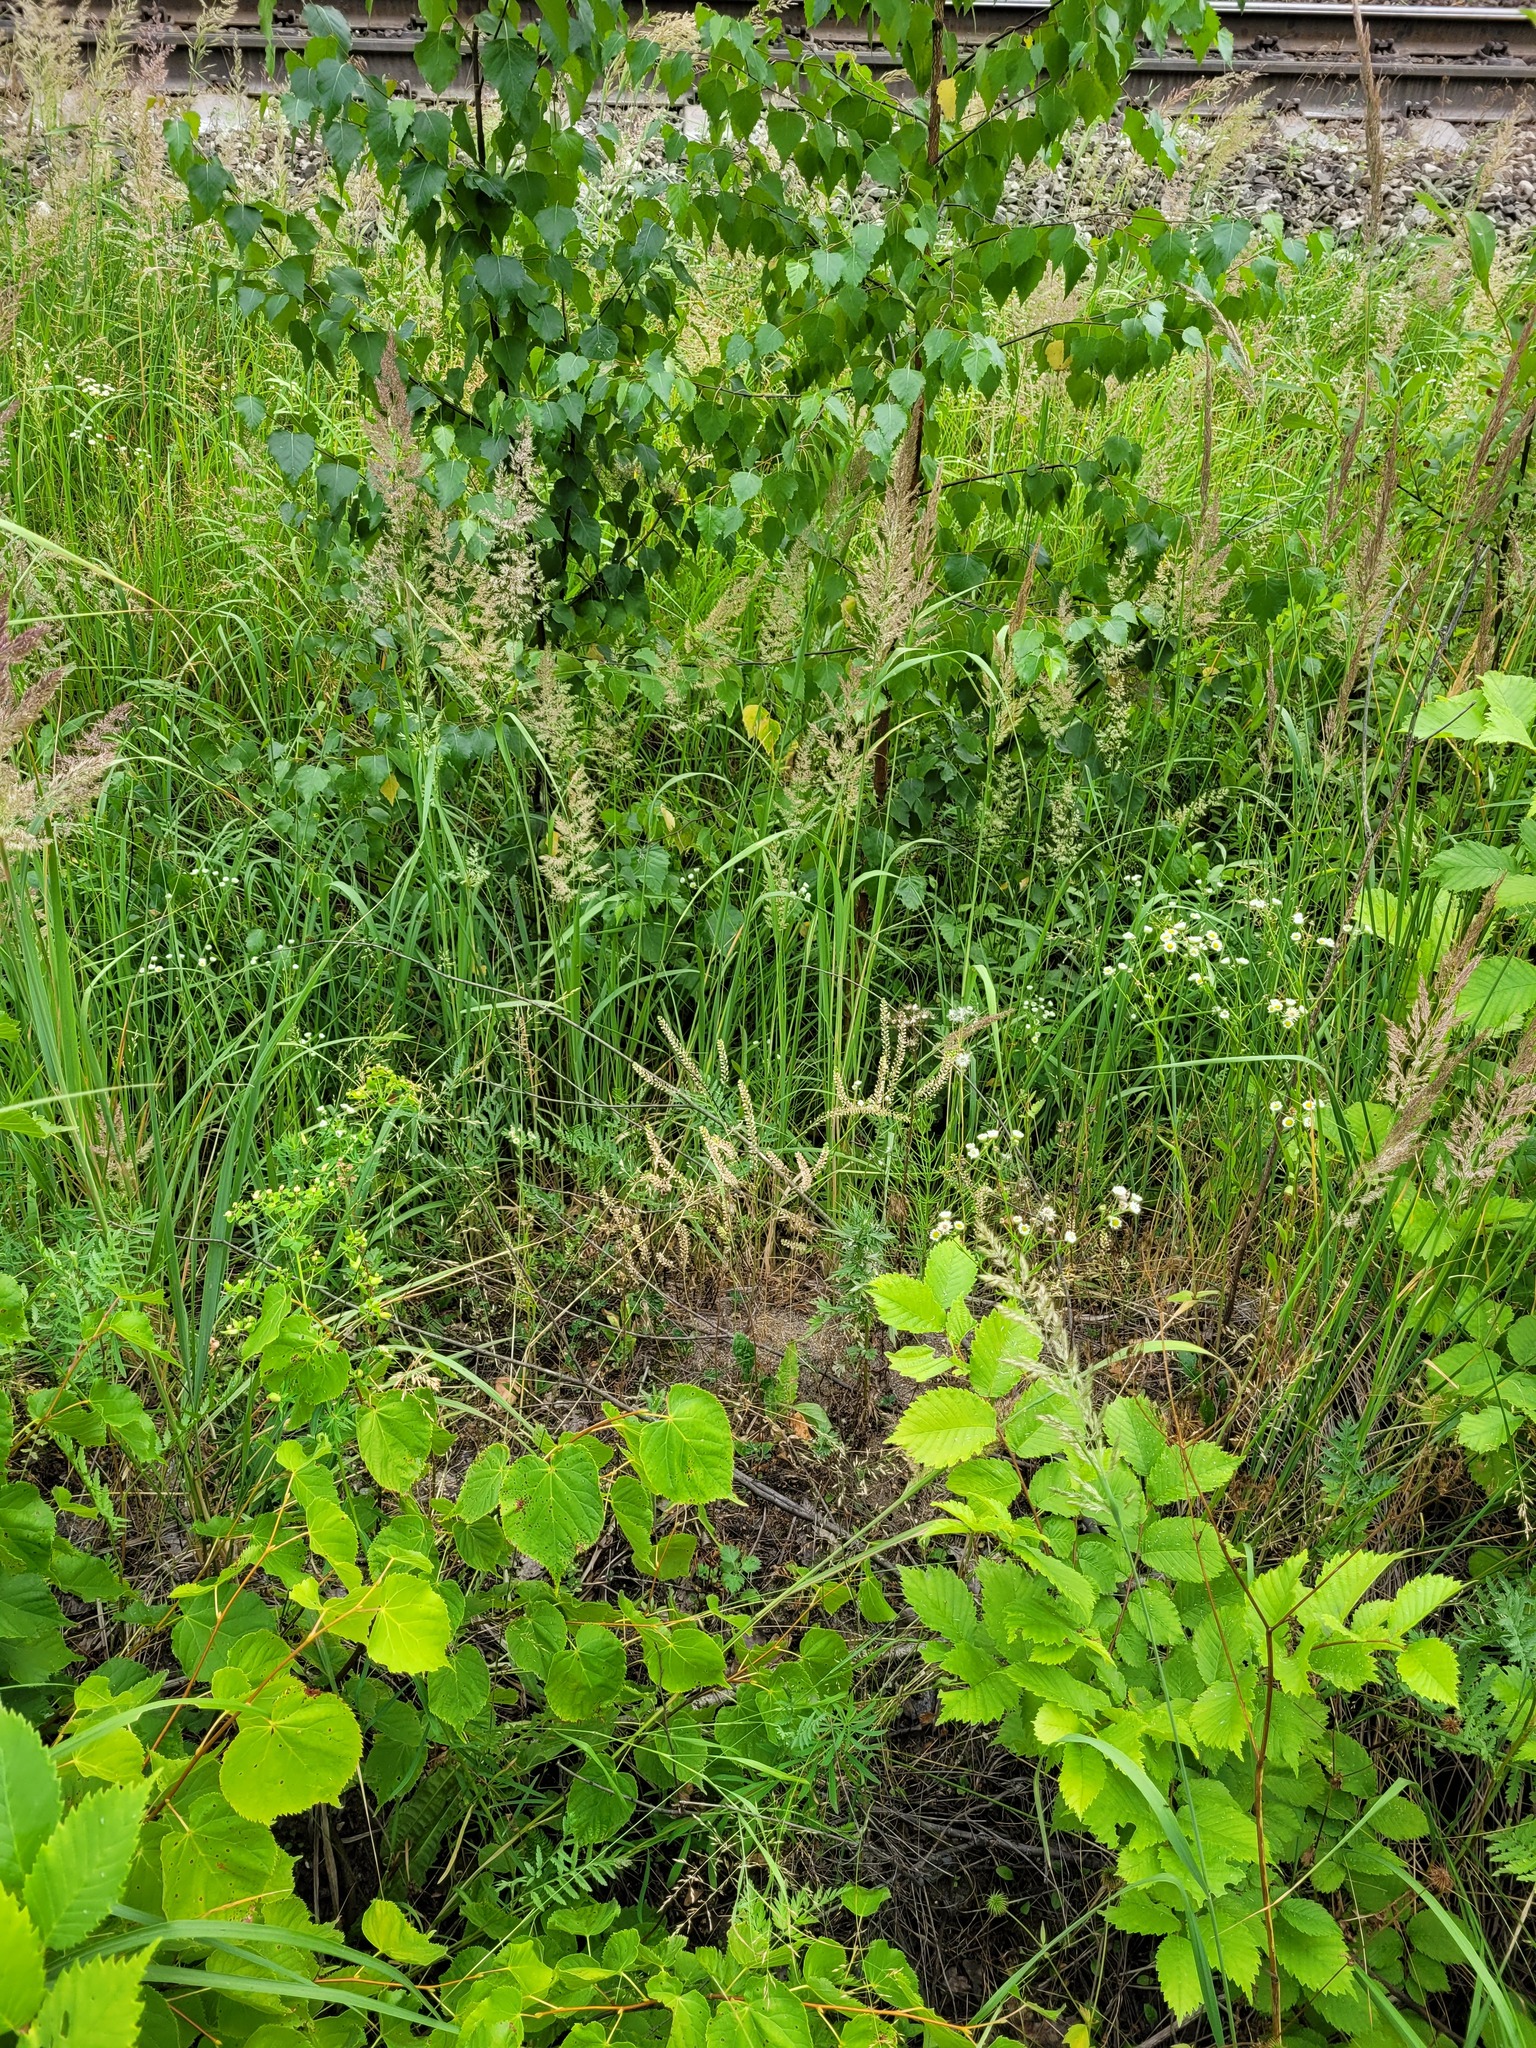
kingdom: Plantae
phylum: Tracheophyta
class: Magnoliopsida
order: Brassicales
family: Brassicaceae
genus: Lepidium
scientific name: Lepidium densiflorum
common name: Miner's pepperwort
